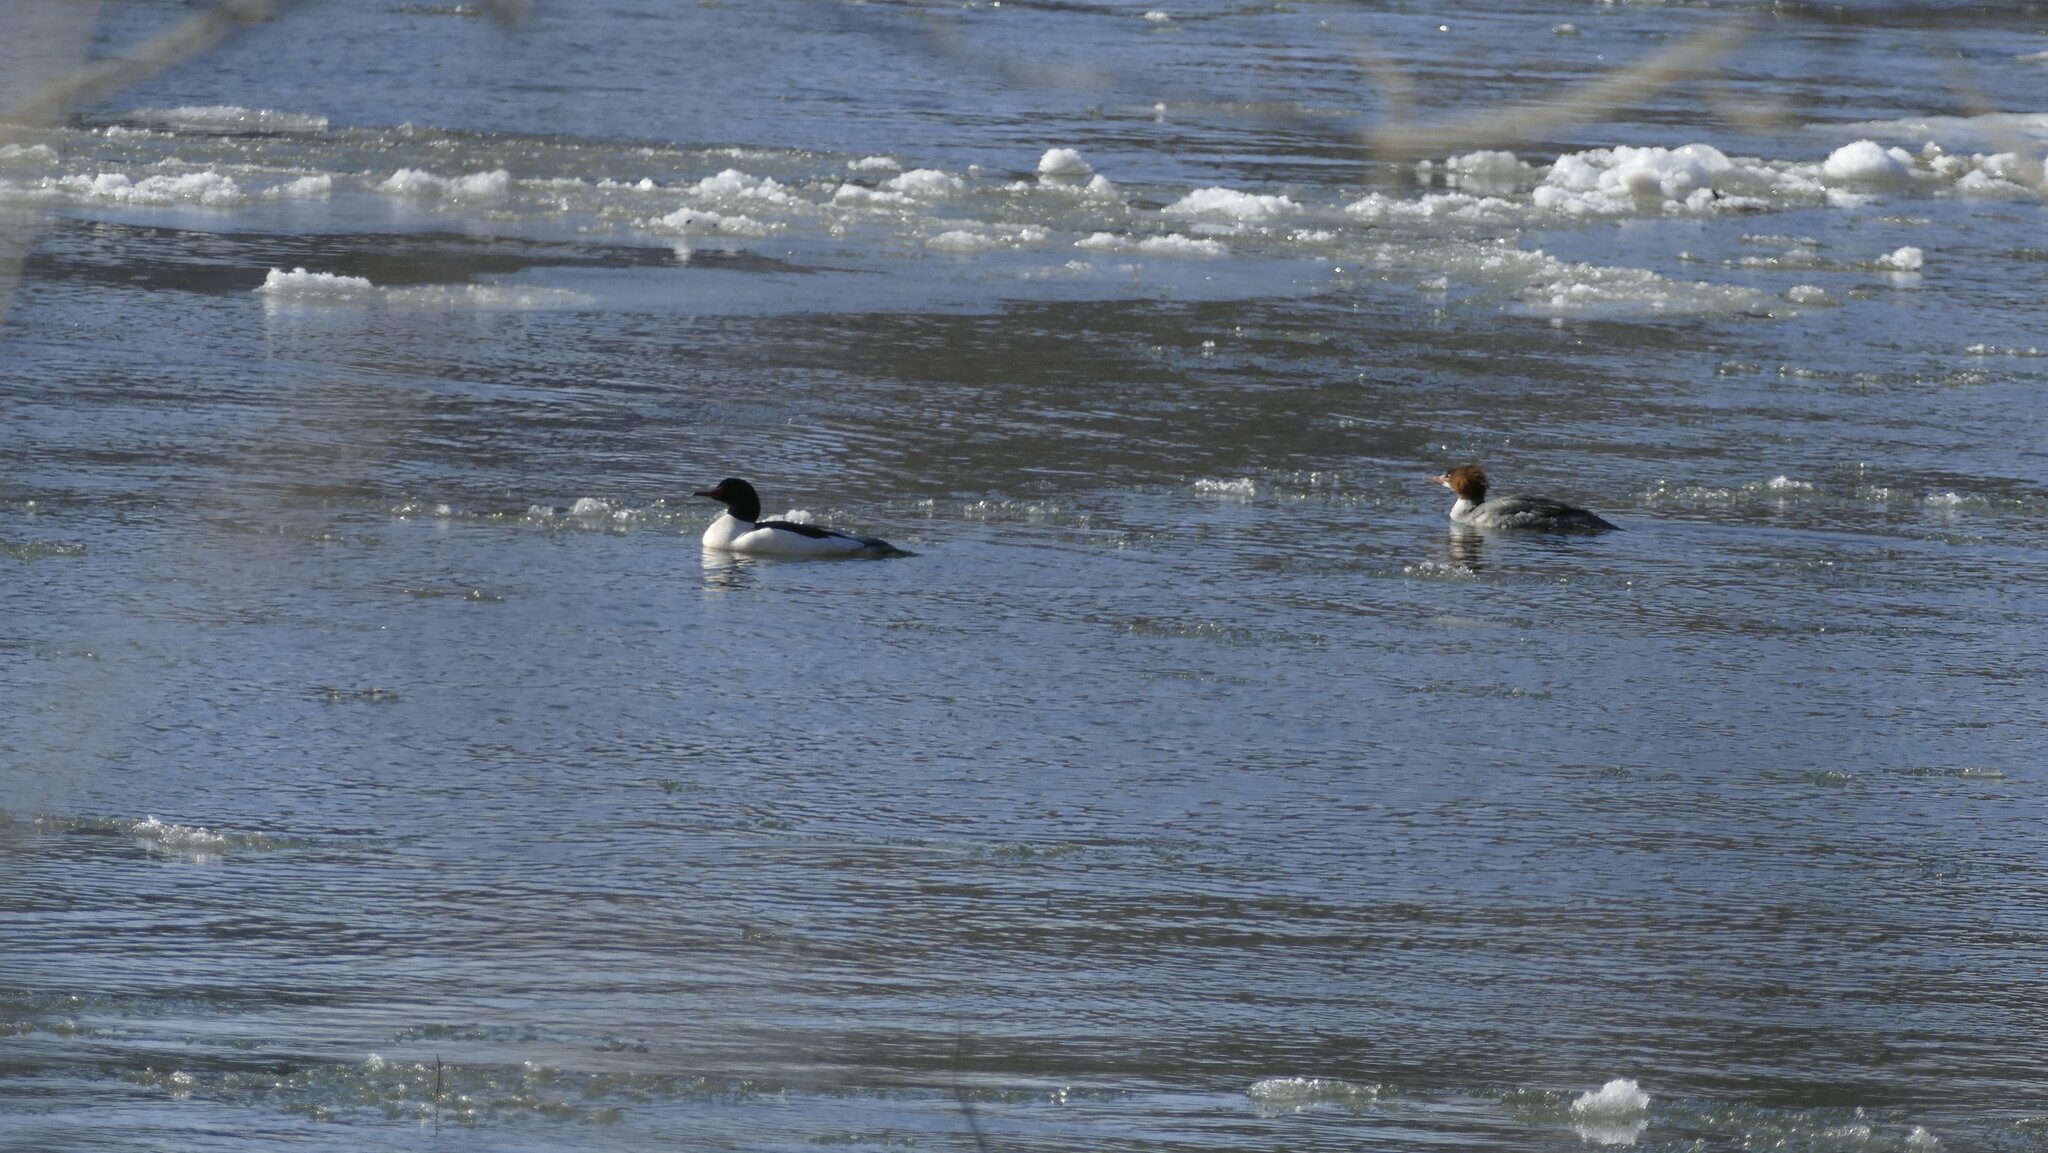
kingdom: Animalia
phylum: Chordata
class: Aves
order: Anseriformes
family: Anatidae
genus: Mergus
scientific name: Mergus merganser
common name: Common merganser
